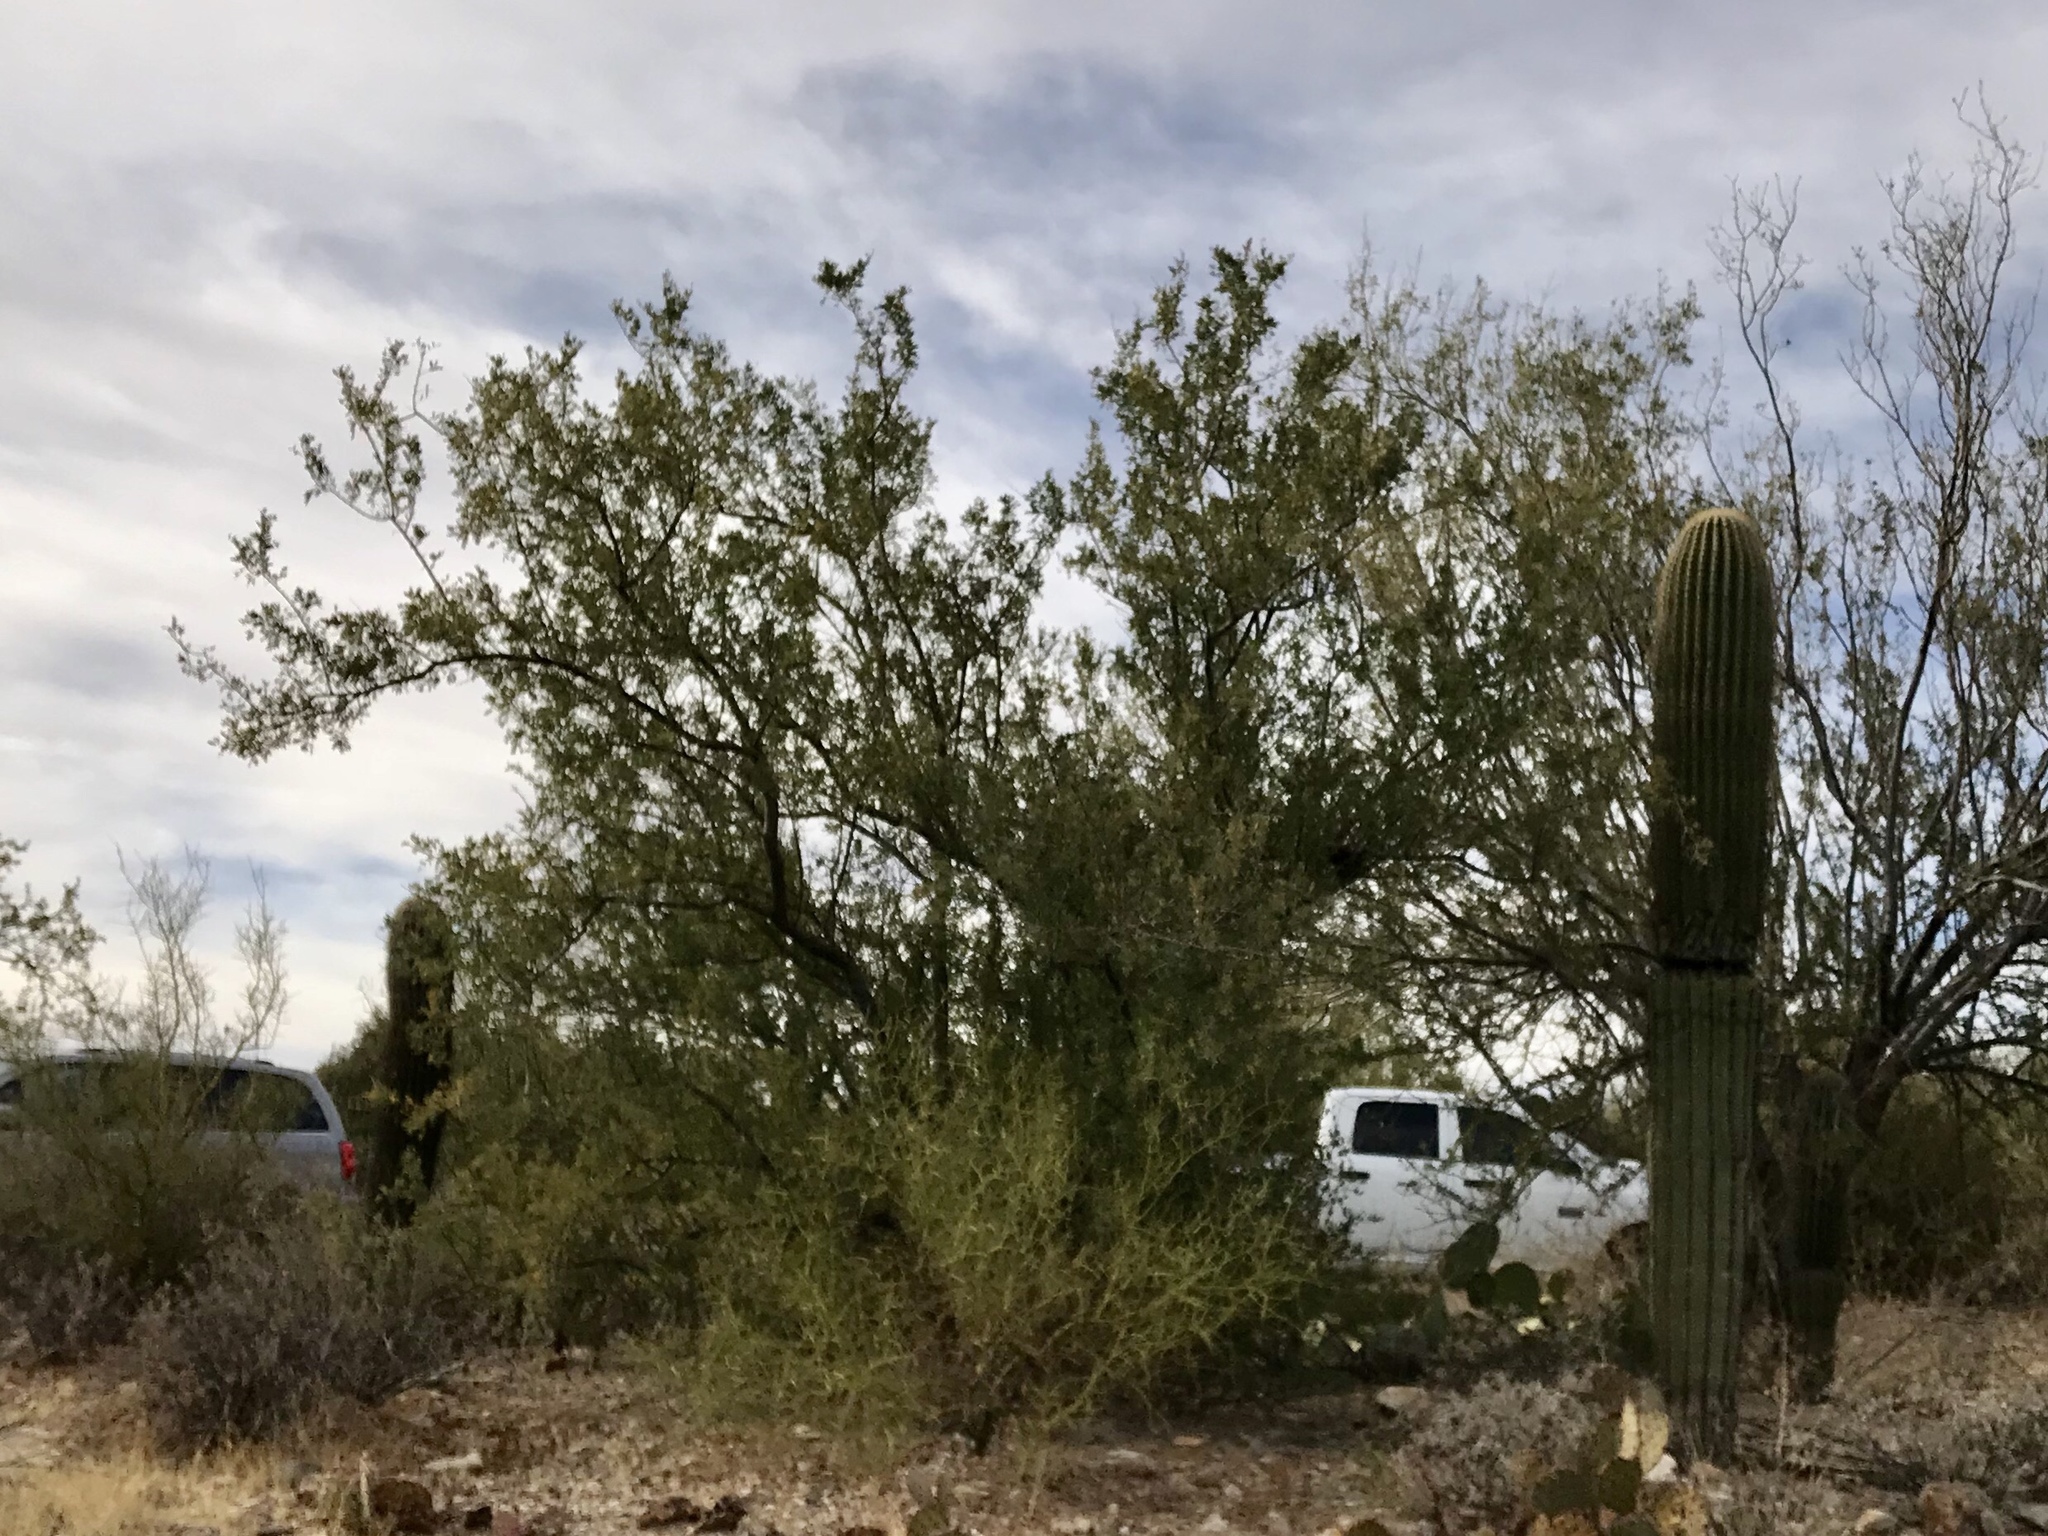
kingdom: Plantae
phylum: Tracheophyta
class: Magnoliopsida
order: Fabales
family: Fabaceae
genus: Parkinsonia
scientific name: Parkinsonia microphylla
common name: Yellow paloverde
